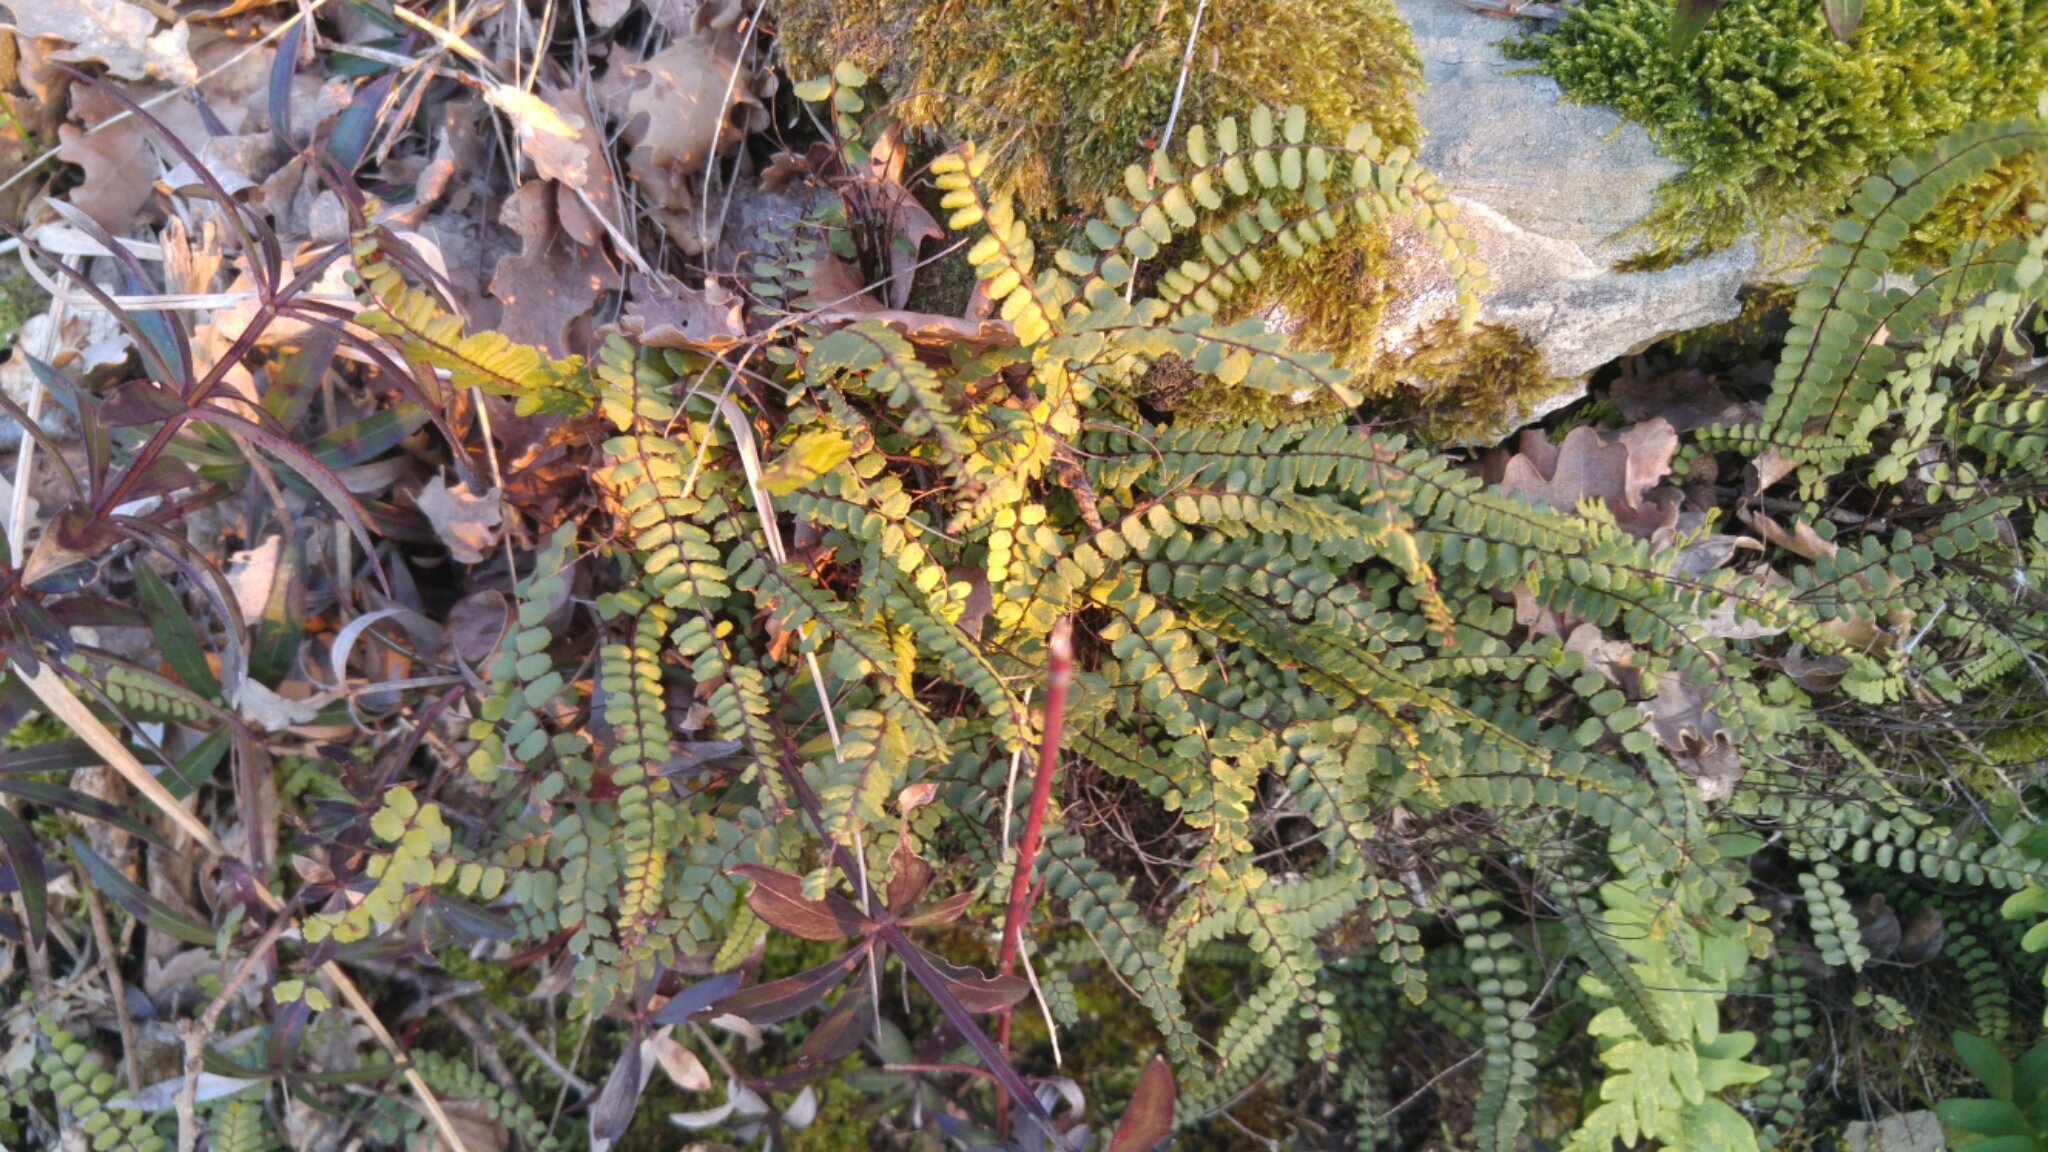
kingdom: Plantae
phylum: Tracheophyta
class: Polypodiopsida
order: Polypodiales
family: Aspleniaceae
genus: Asplenium
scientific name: Asplenium trichomanes
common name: Maidenhair spleenwort
